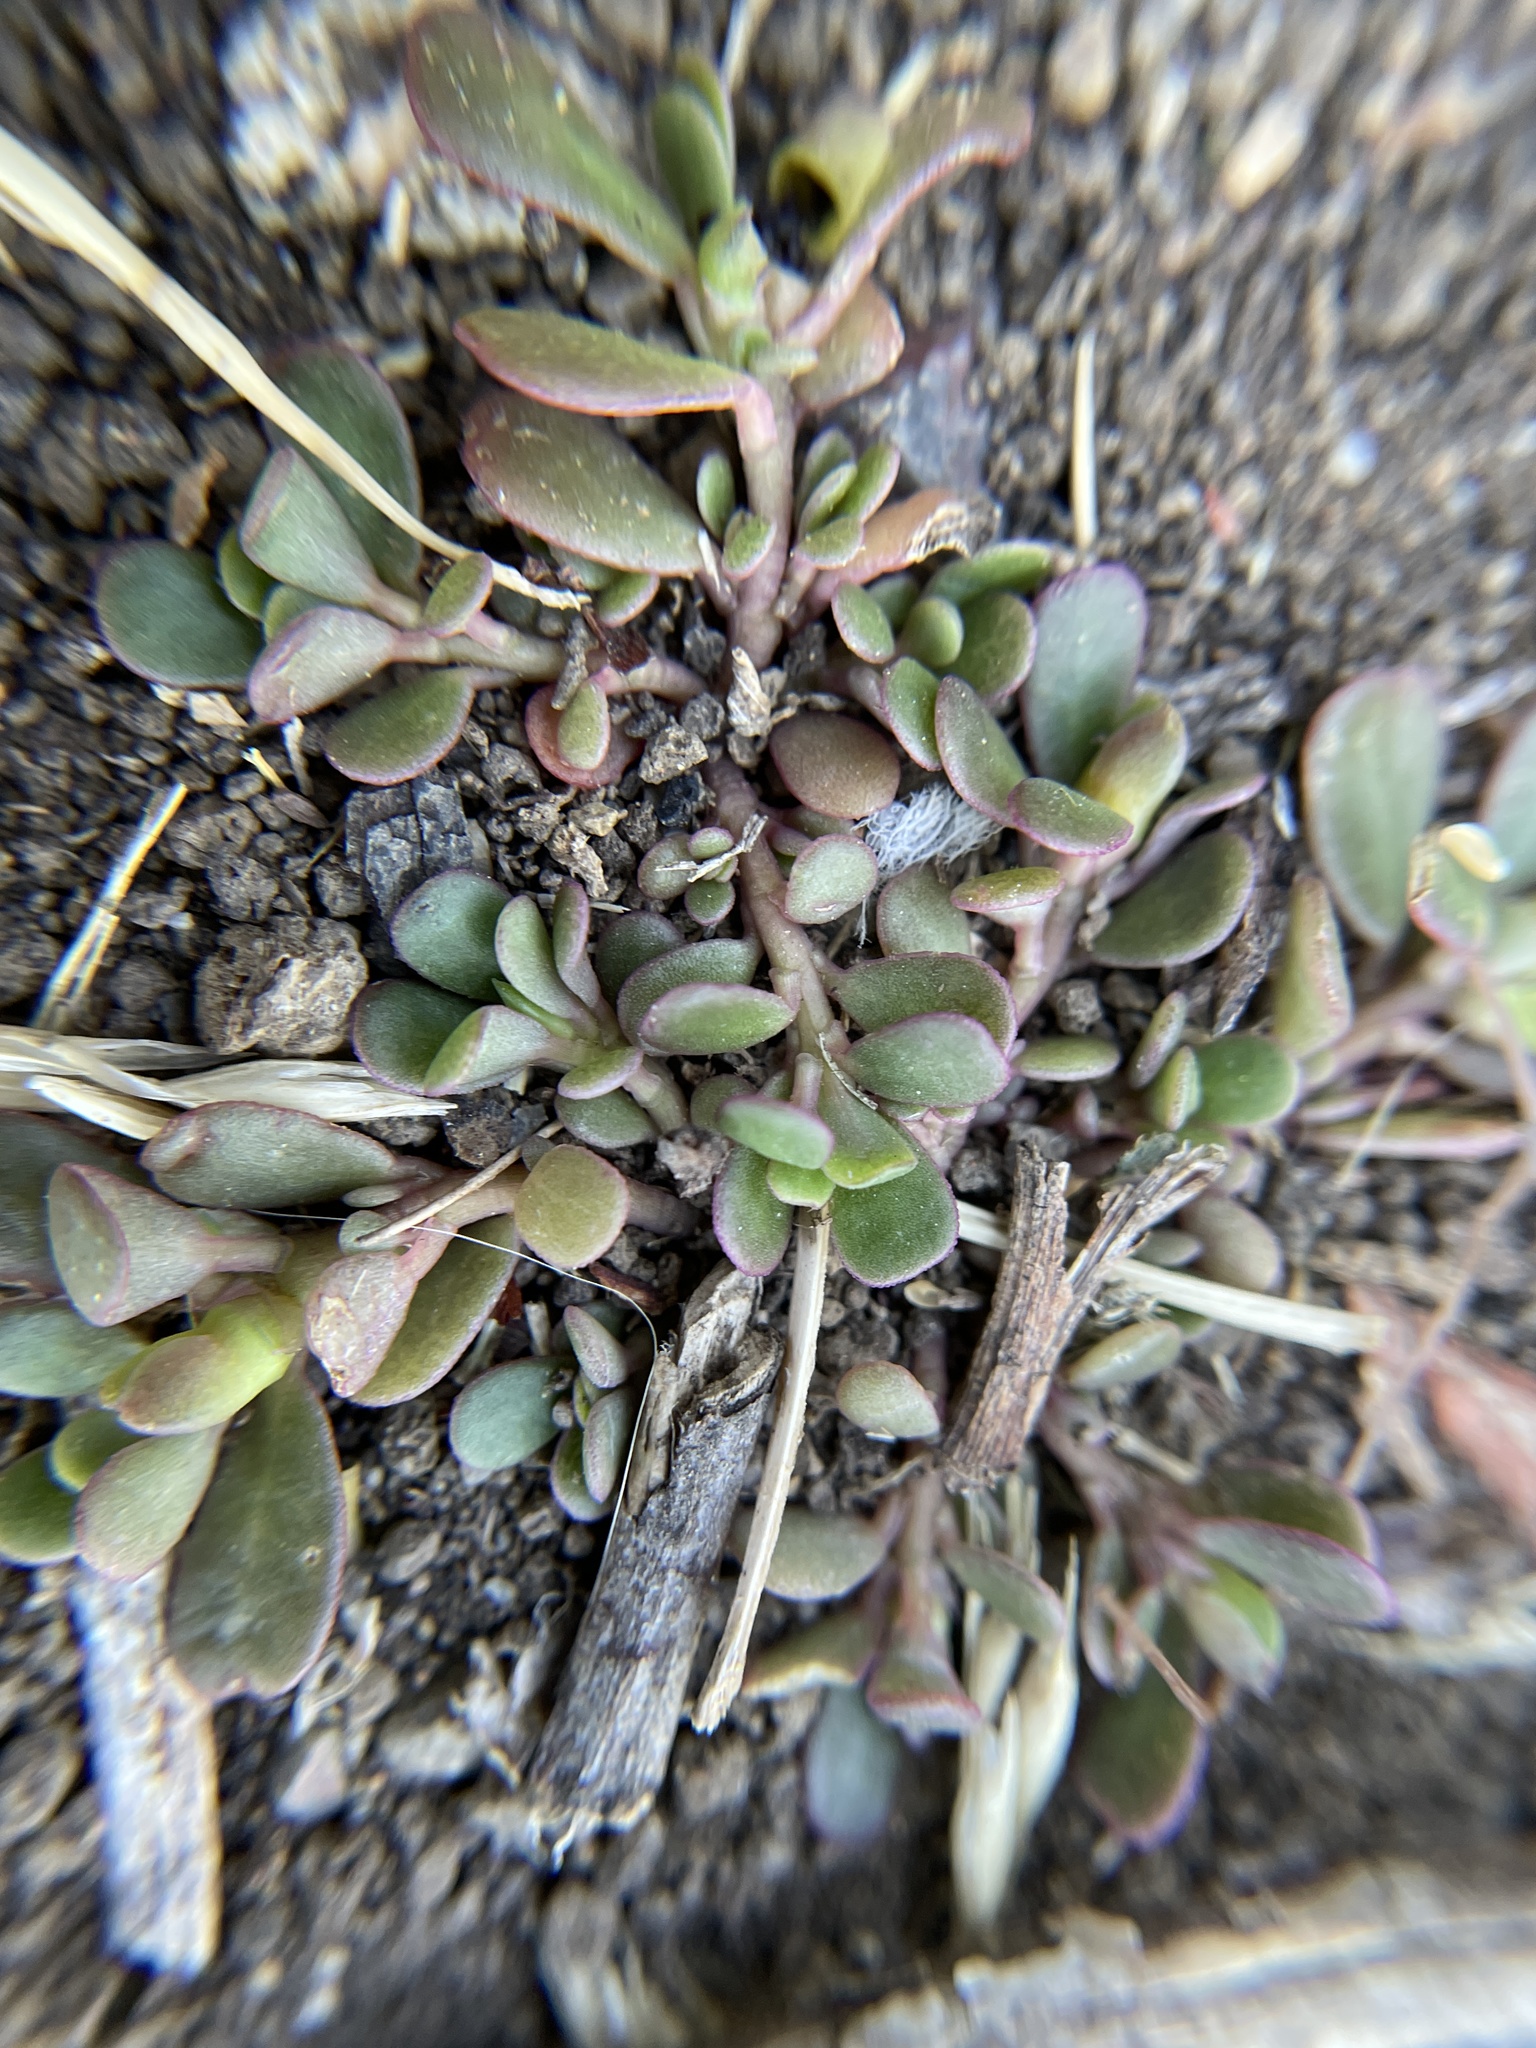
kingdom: Plantae
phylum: Tracheophyta
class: Magnoliopsida
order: Caryophyllales
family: Portulacaceae
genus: Portulaca
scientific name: Portulaca oleracea
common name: Common purslane
